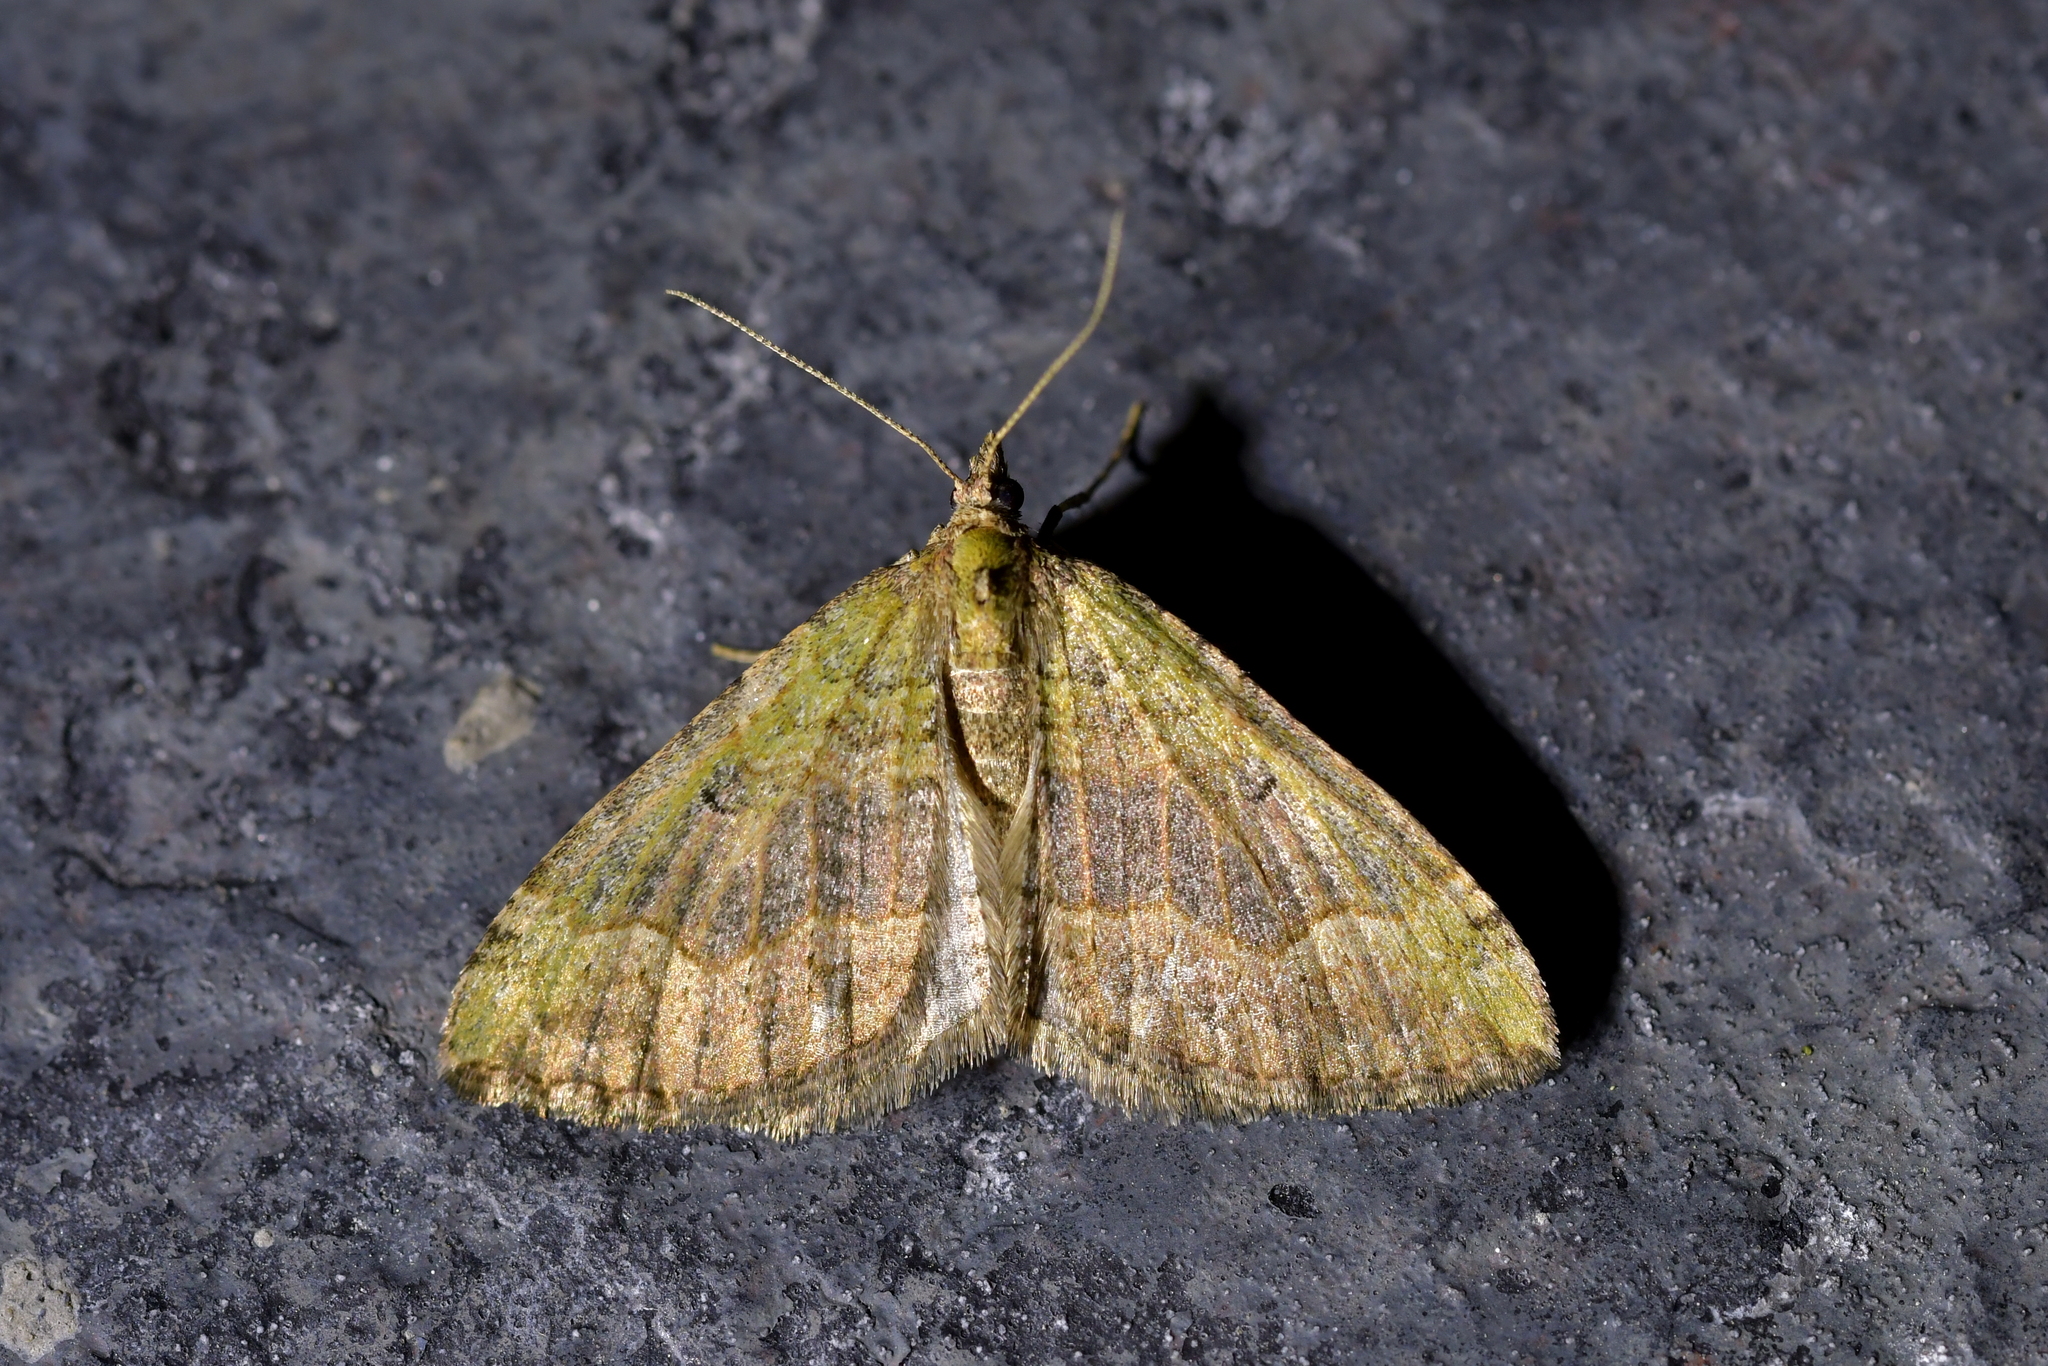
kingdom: Animalia
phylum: Arthropoda
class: Insecta
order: Lepidoptera
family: Geometridae
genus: Epyaxa
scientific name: Epyaxa rosearia
